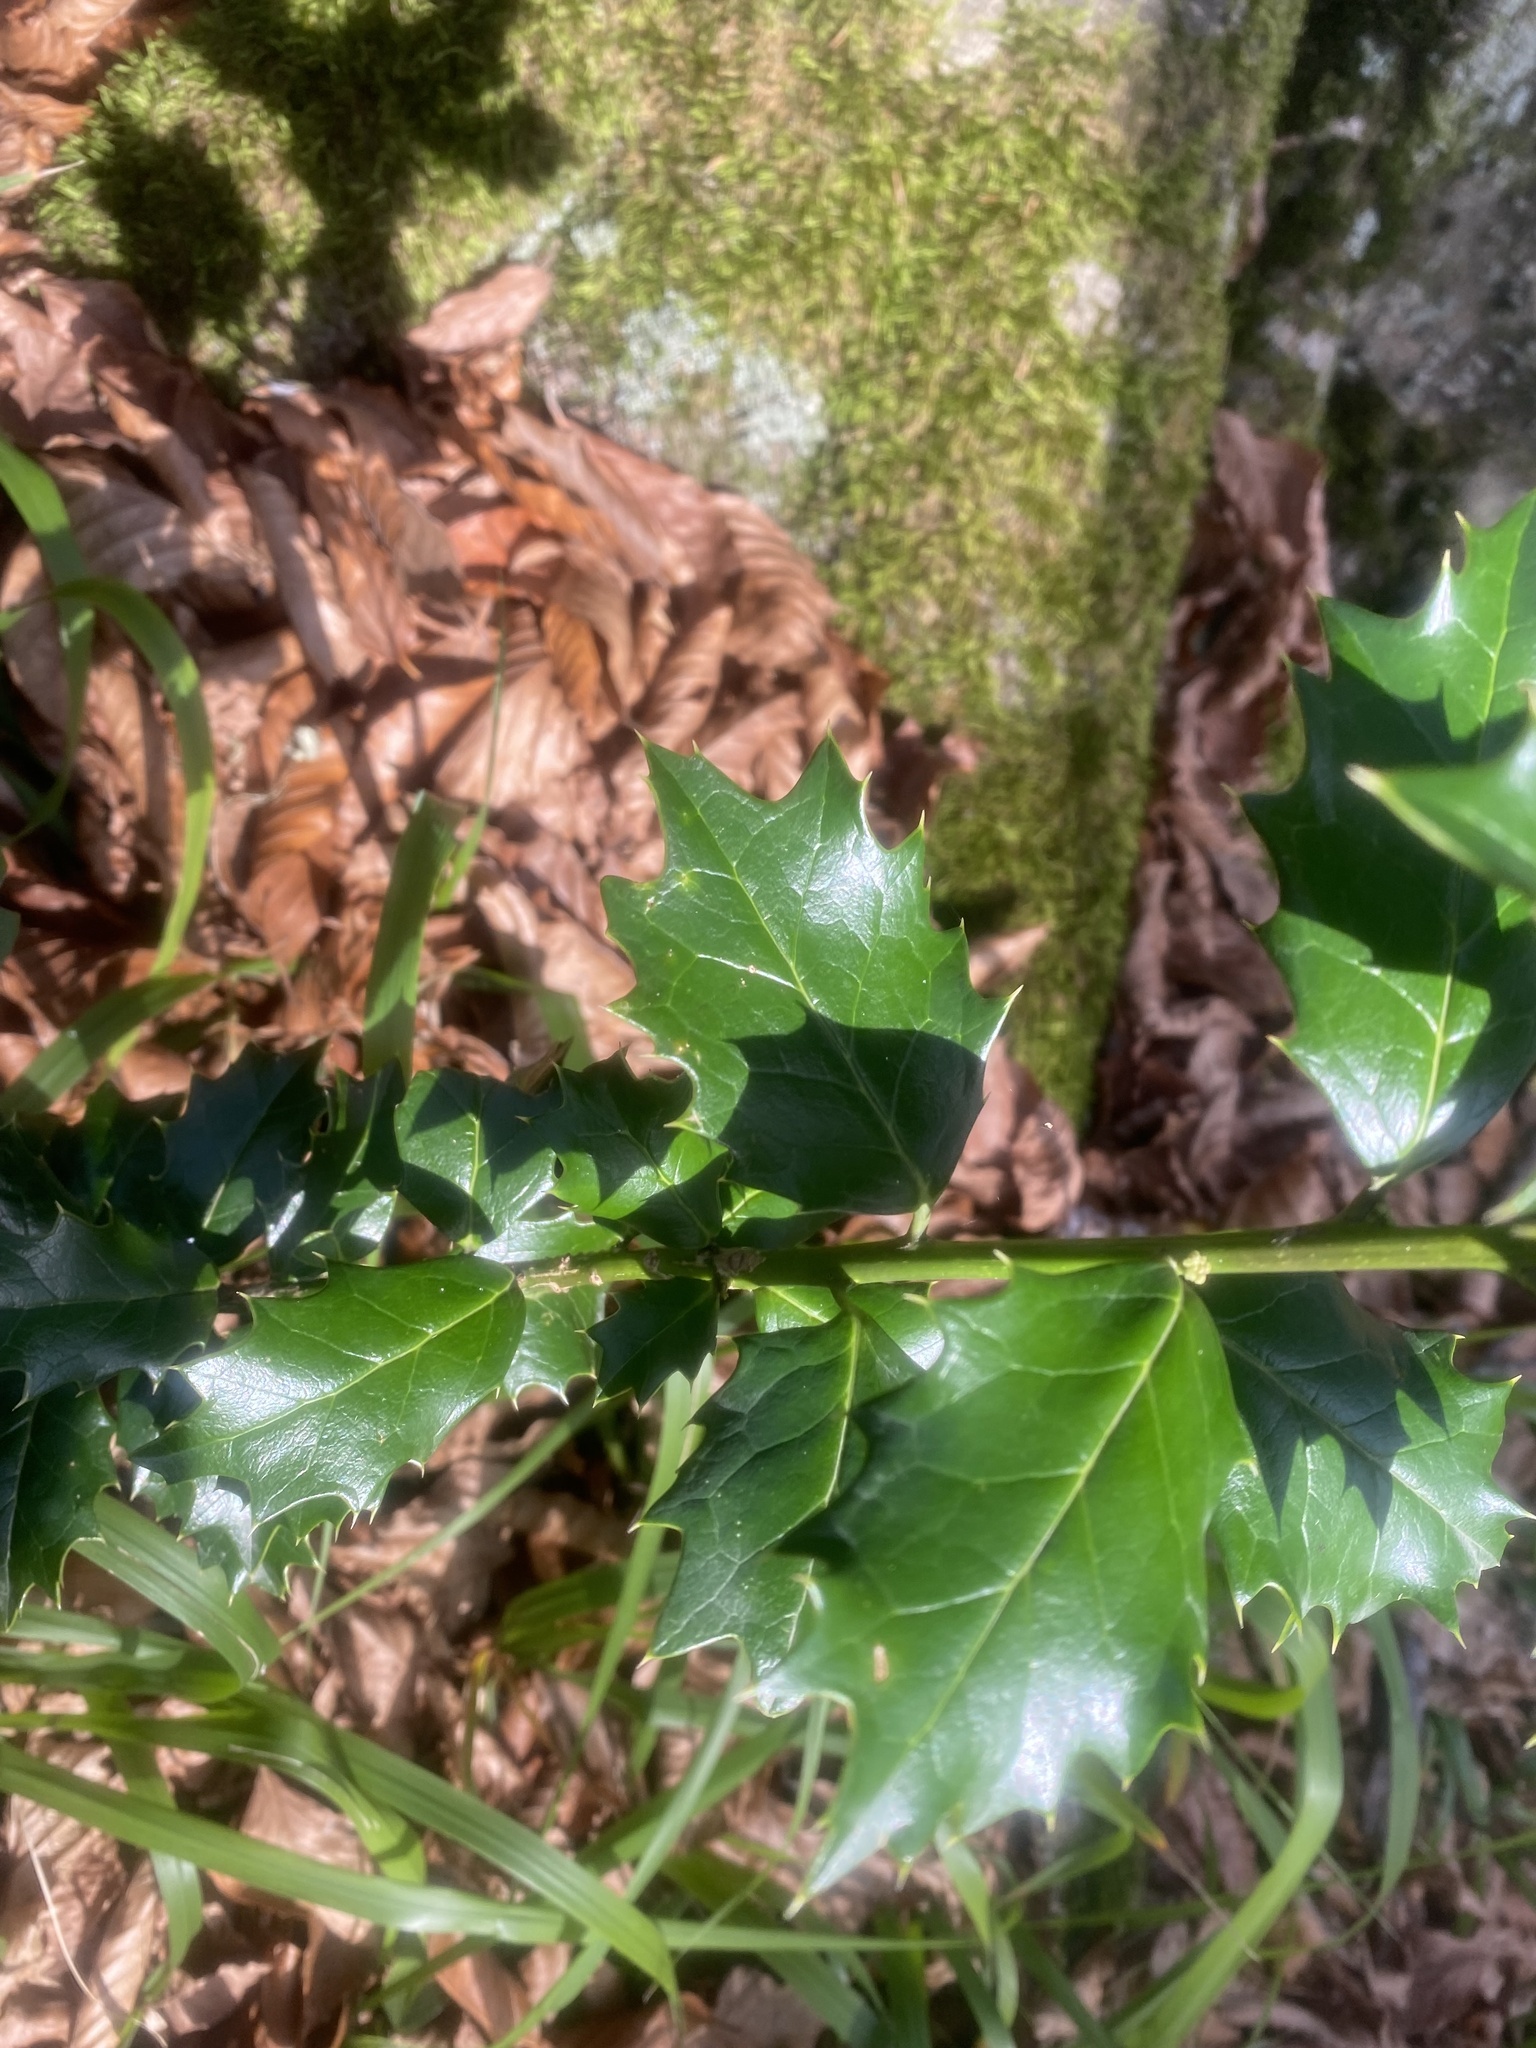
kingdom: Plantae
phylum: Tracheophyta
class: Magnoliopsida
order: Aquifoliales
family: Aquifoliaceae
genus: Ilex
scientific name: Ilex colchica
